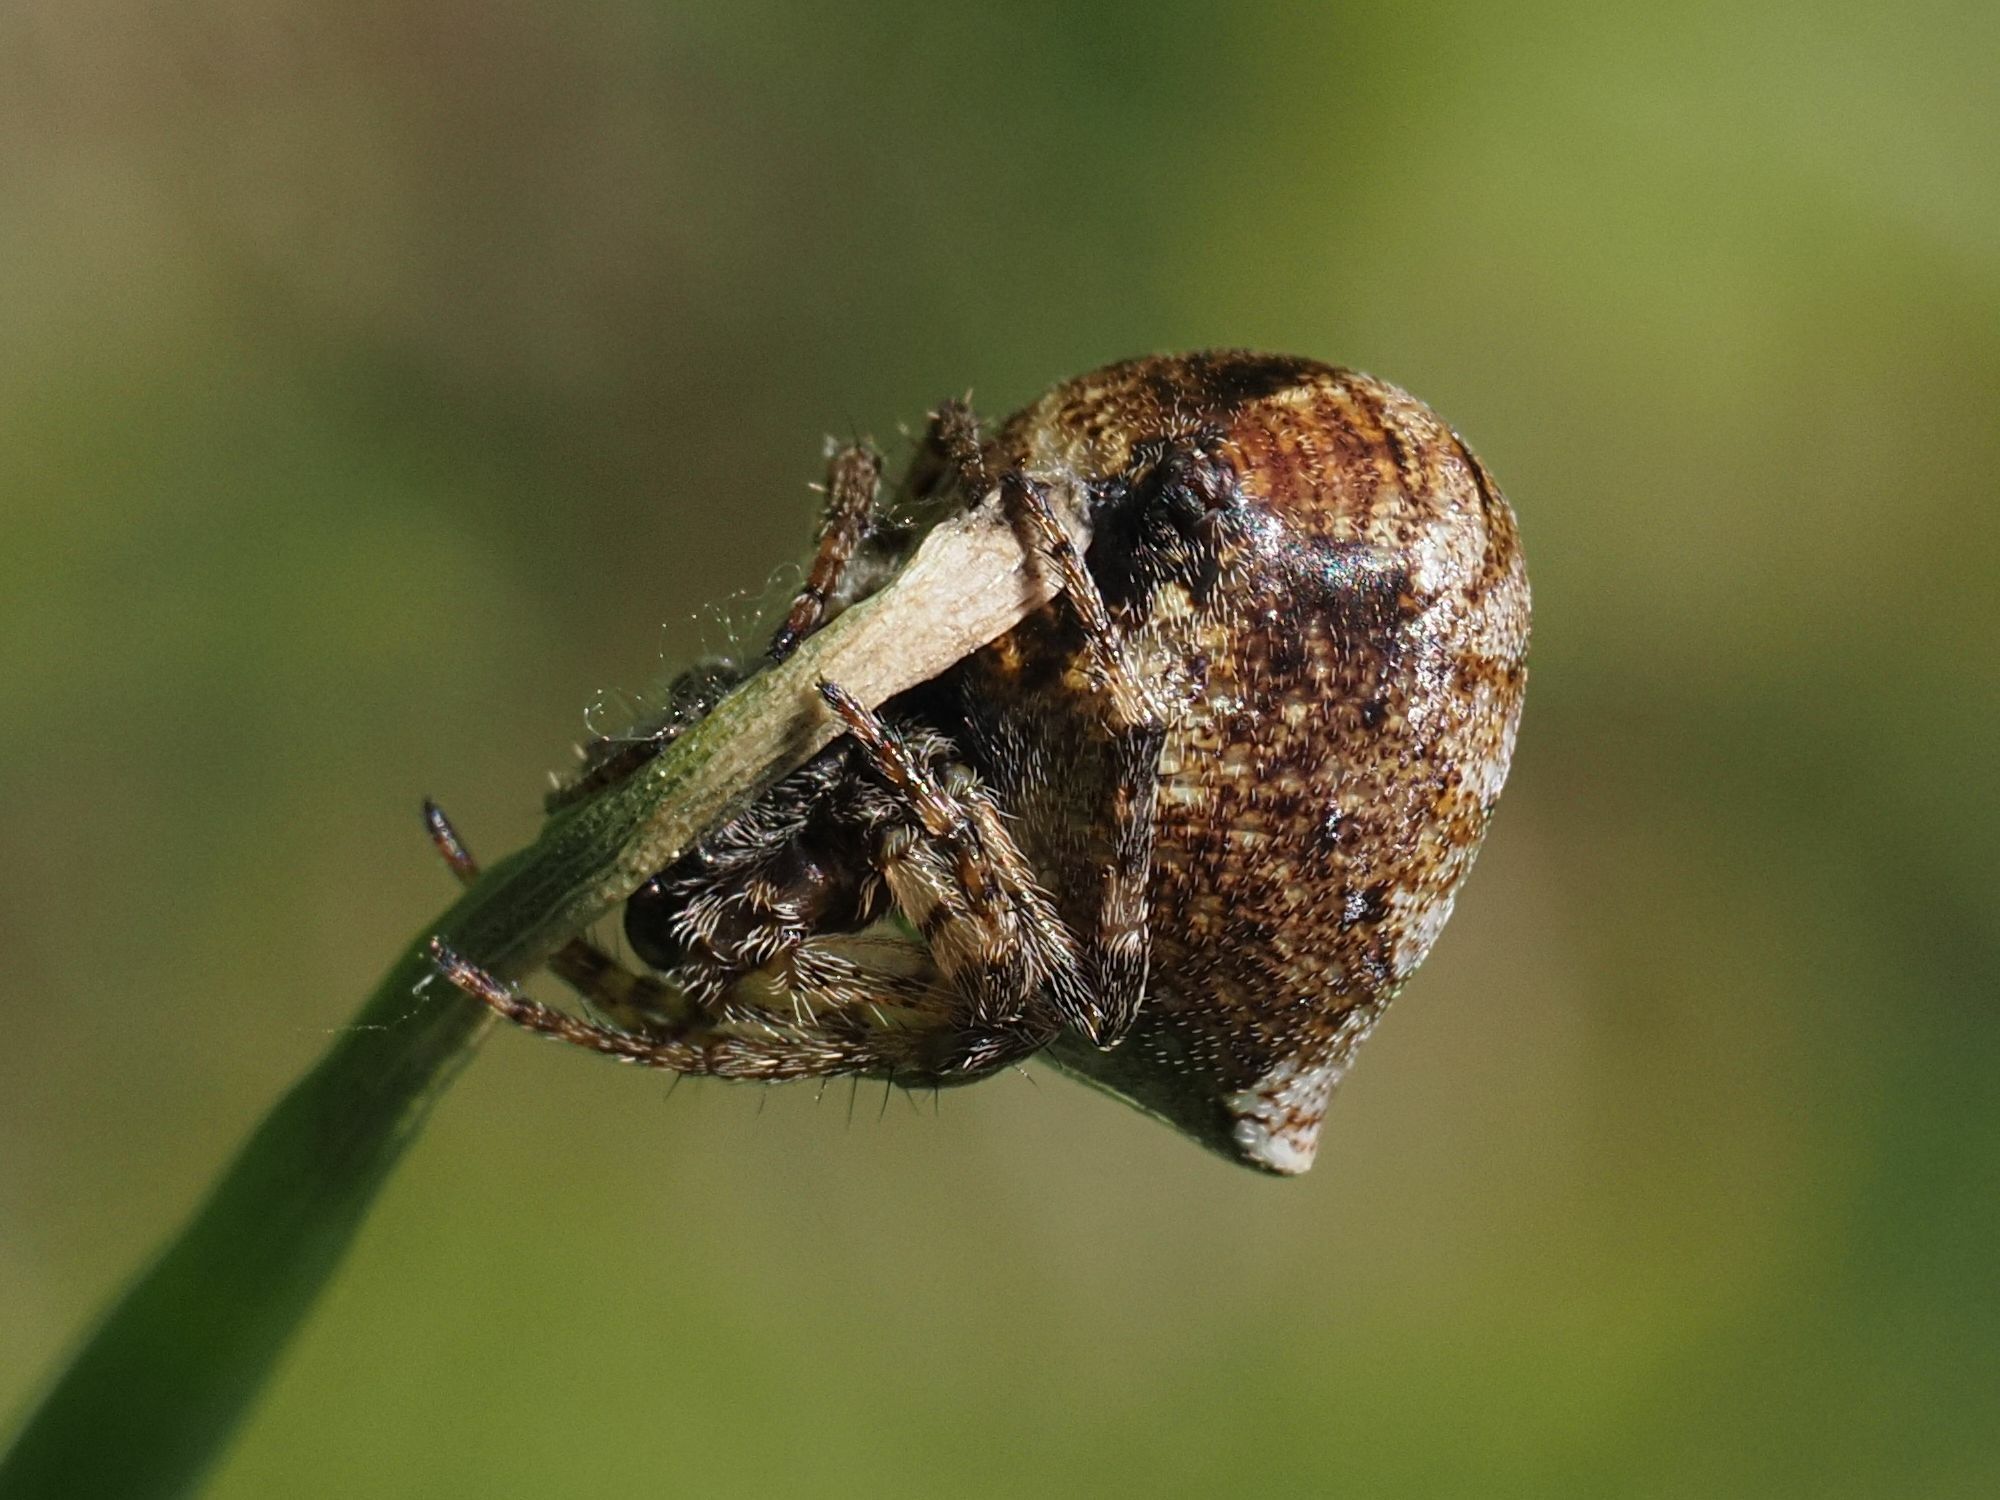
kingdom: Animalia
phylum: Arthropoda
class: Arachnida
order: Araneae
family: Araneidae
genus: Gibbaranea
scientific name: Gibbaranea bituberculata
